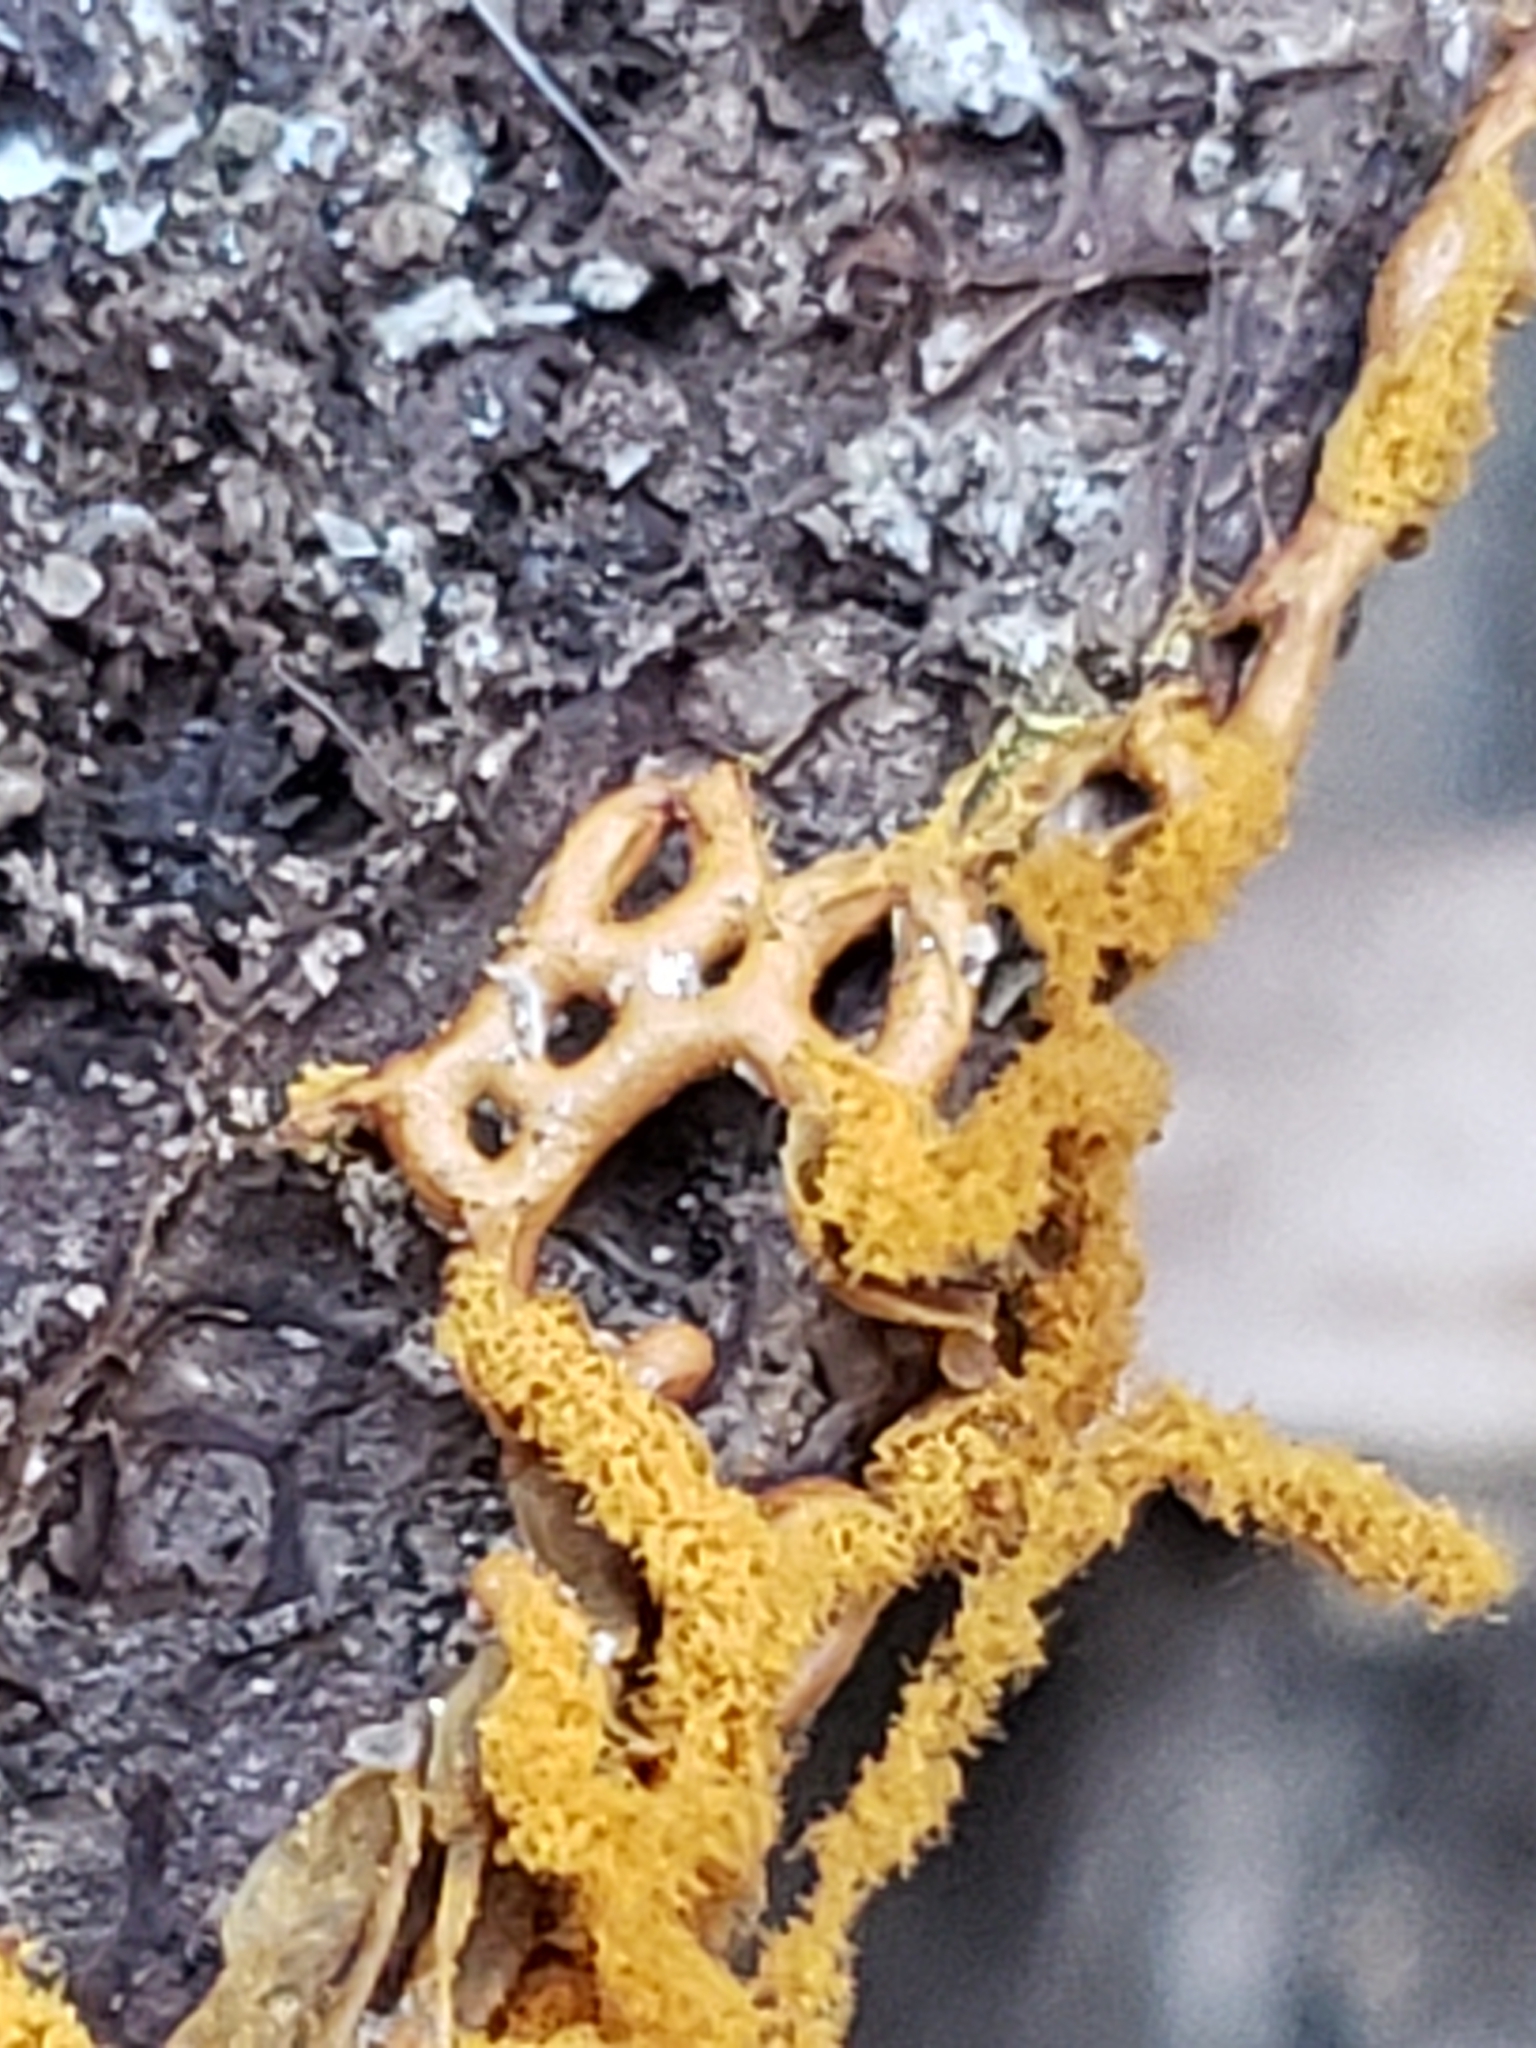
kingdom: Protozoa
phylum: Mycetozoa
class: Myxomycetes
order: Trichiales
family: Arcyriaceae
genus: Hemitrichia
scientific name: Hemitrichia serpula
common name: Pretzel slime mold
